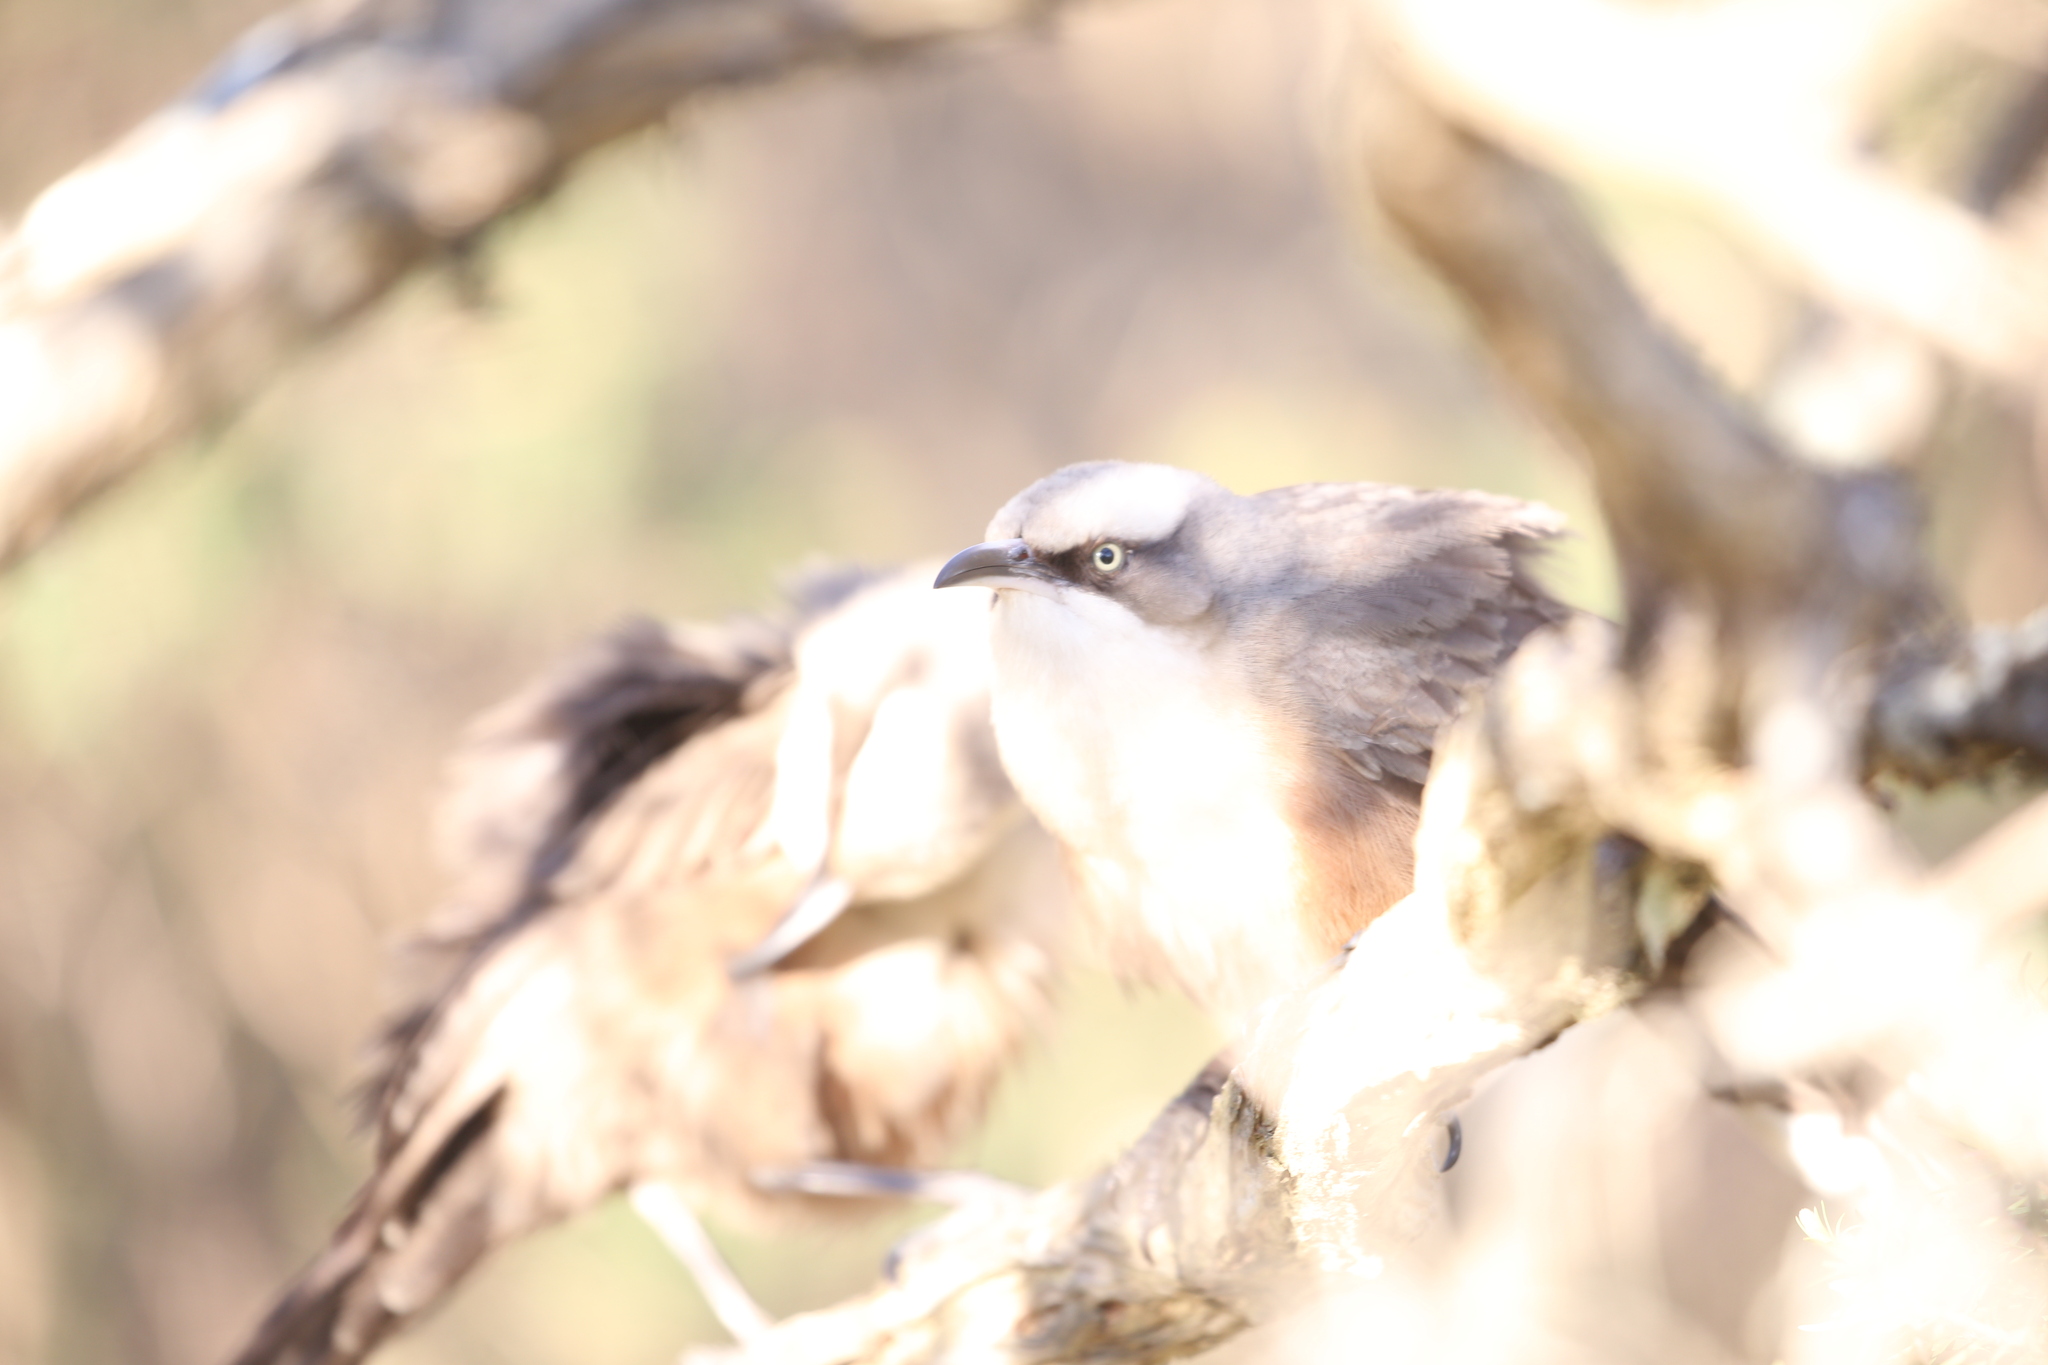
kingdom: Animalia
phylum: Chordata
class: Aves
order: Passeriformes
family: Pomatostomidae
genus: Pomatostomus
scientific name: Pomatostomus temporalis
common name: Grey-crowned babbler
